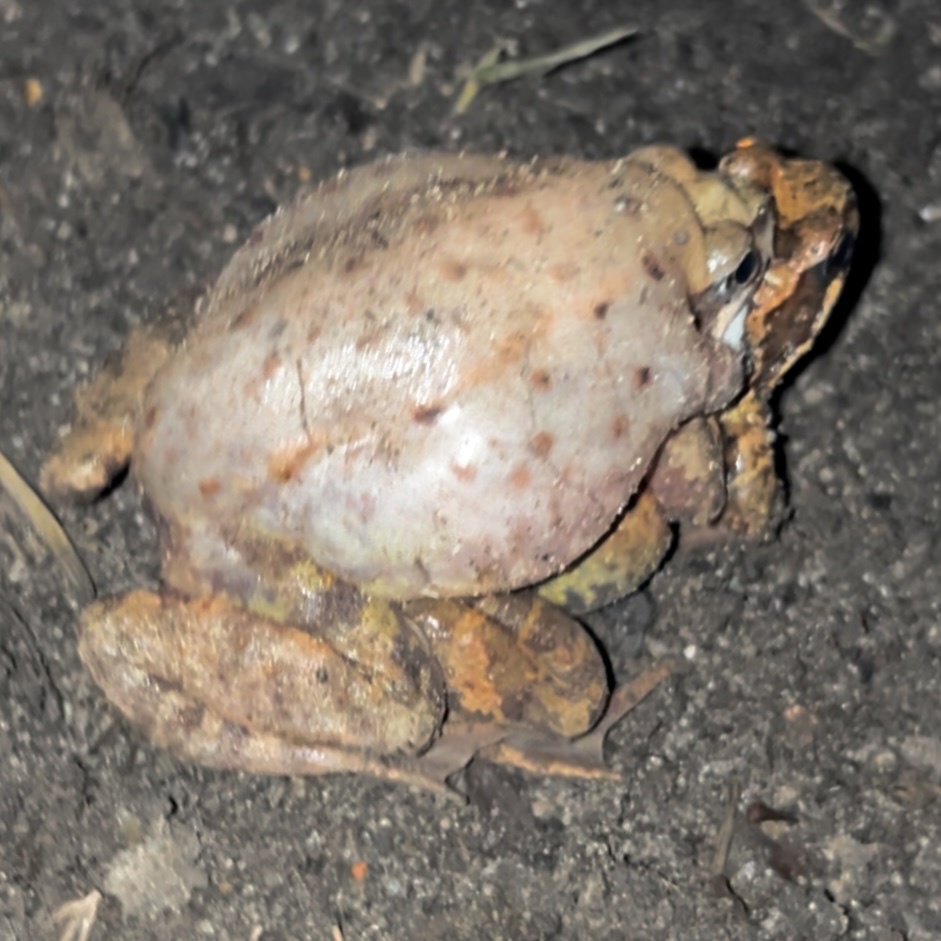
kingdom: Animalia
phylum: Chordata
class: Amphibia
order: Anura
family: Ranidae
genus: Rana
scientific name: Rana temporaria
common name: Common frog
